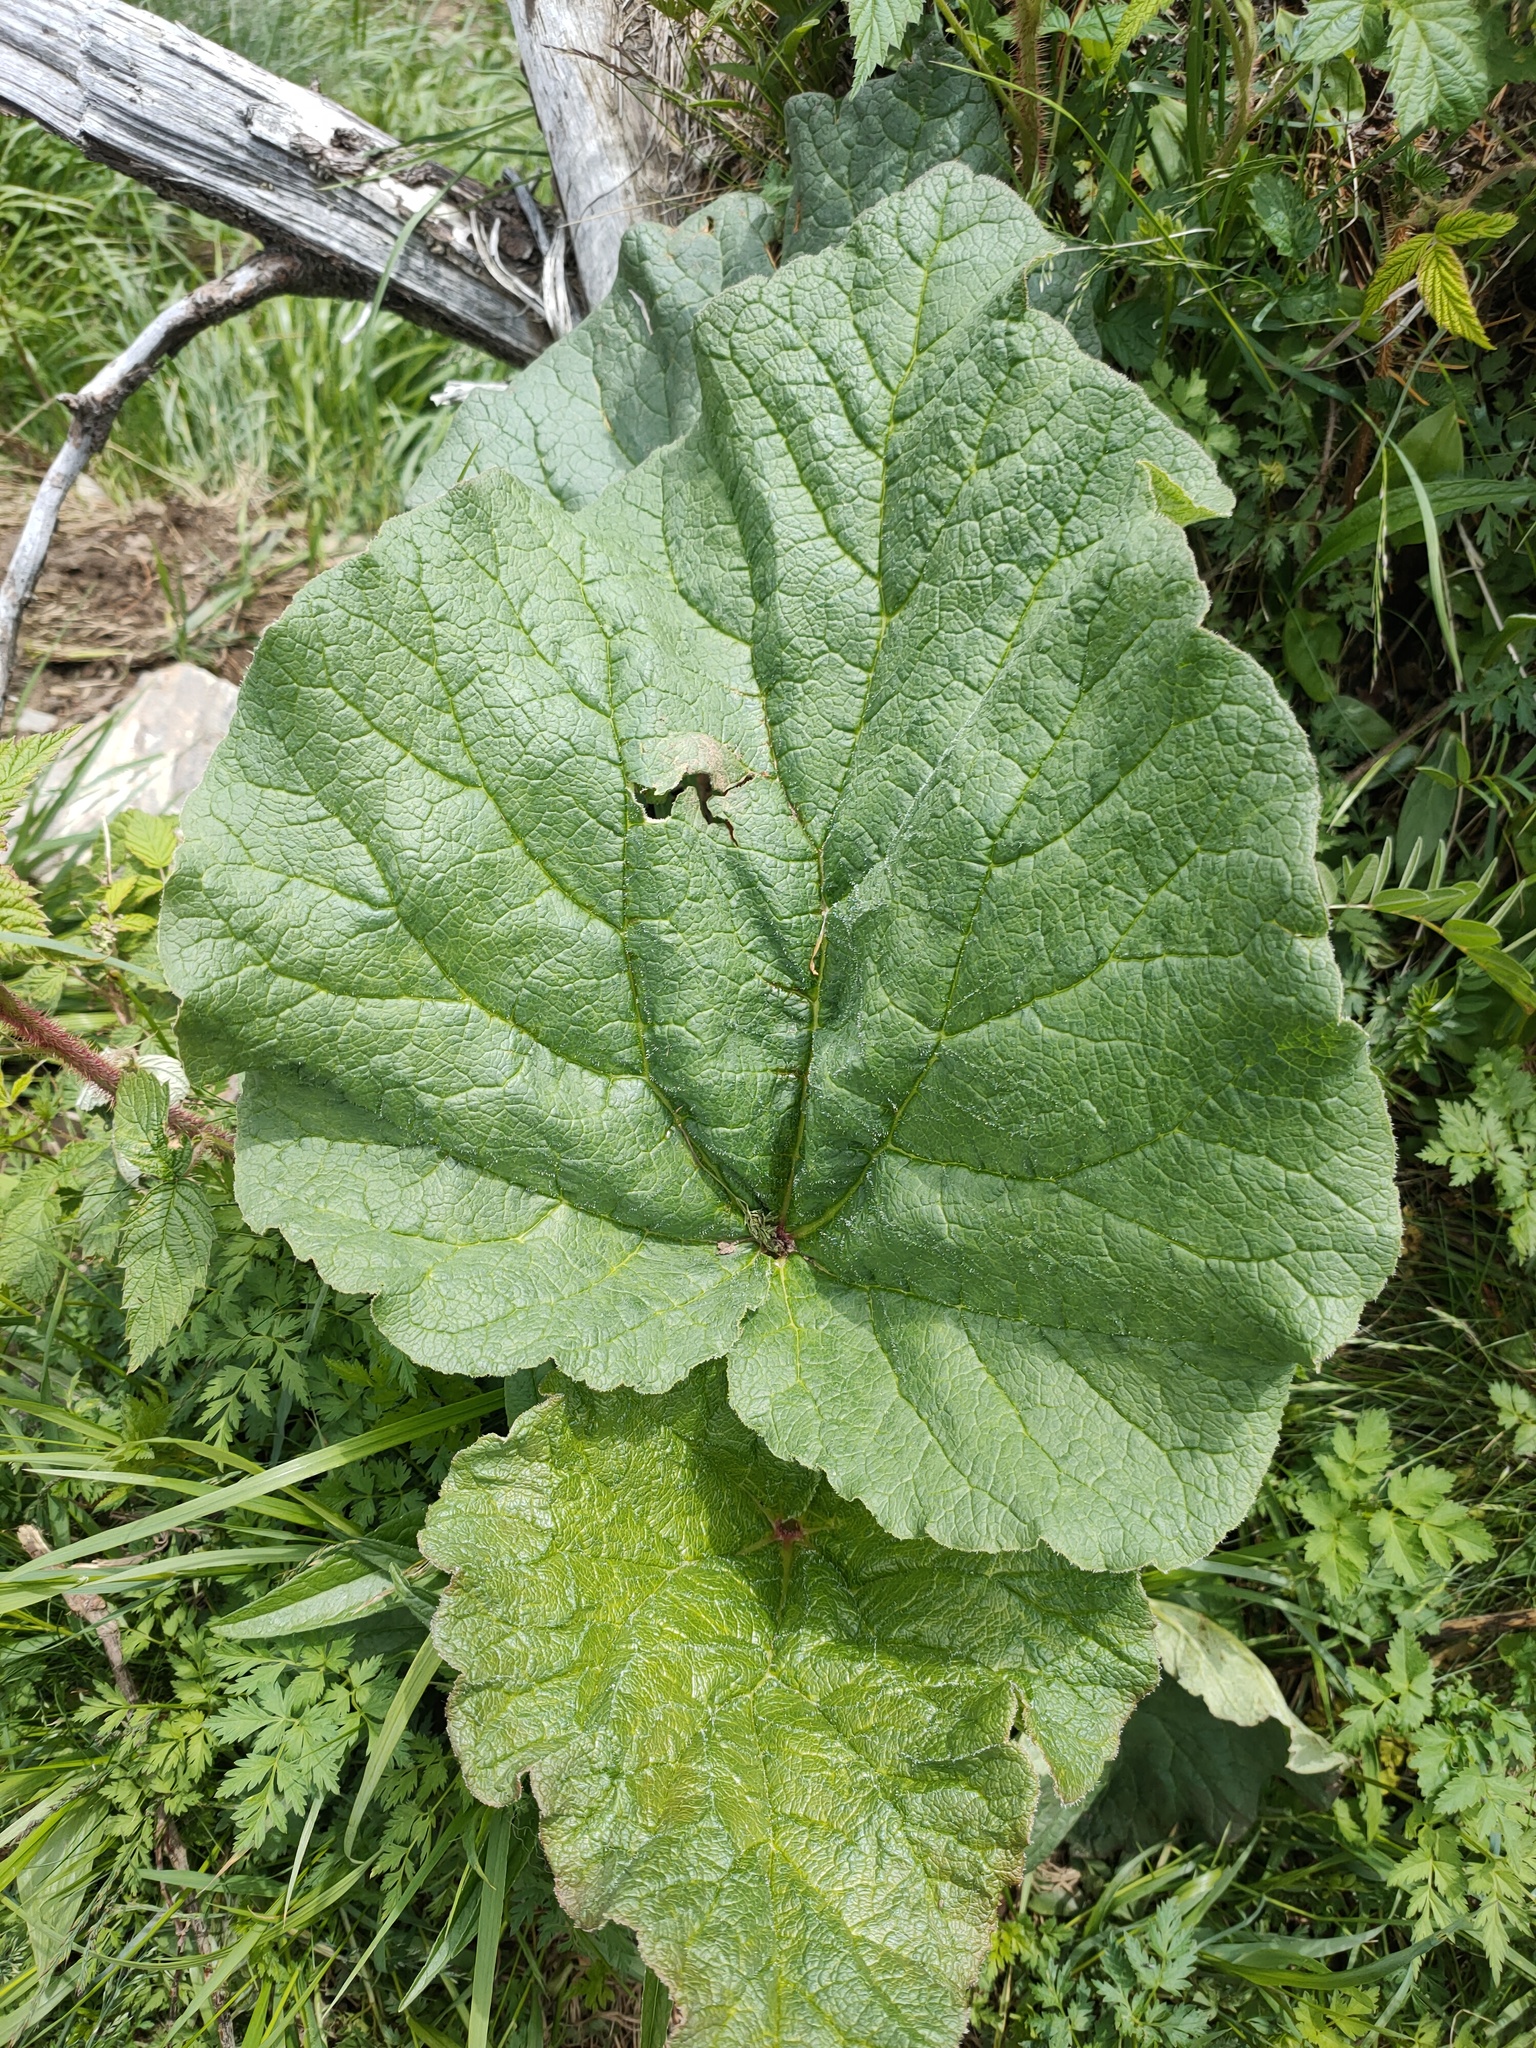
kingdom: Plantae
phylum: Tracheophyta
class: Magnoliopsida
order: Caryophyllales
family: Polygonaceae
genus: Rheum
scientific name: Rheum compactum
